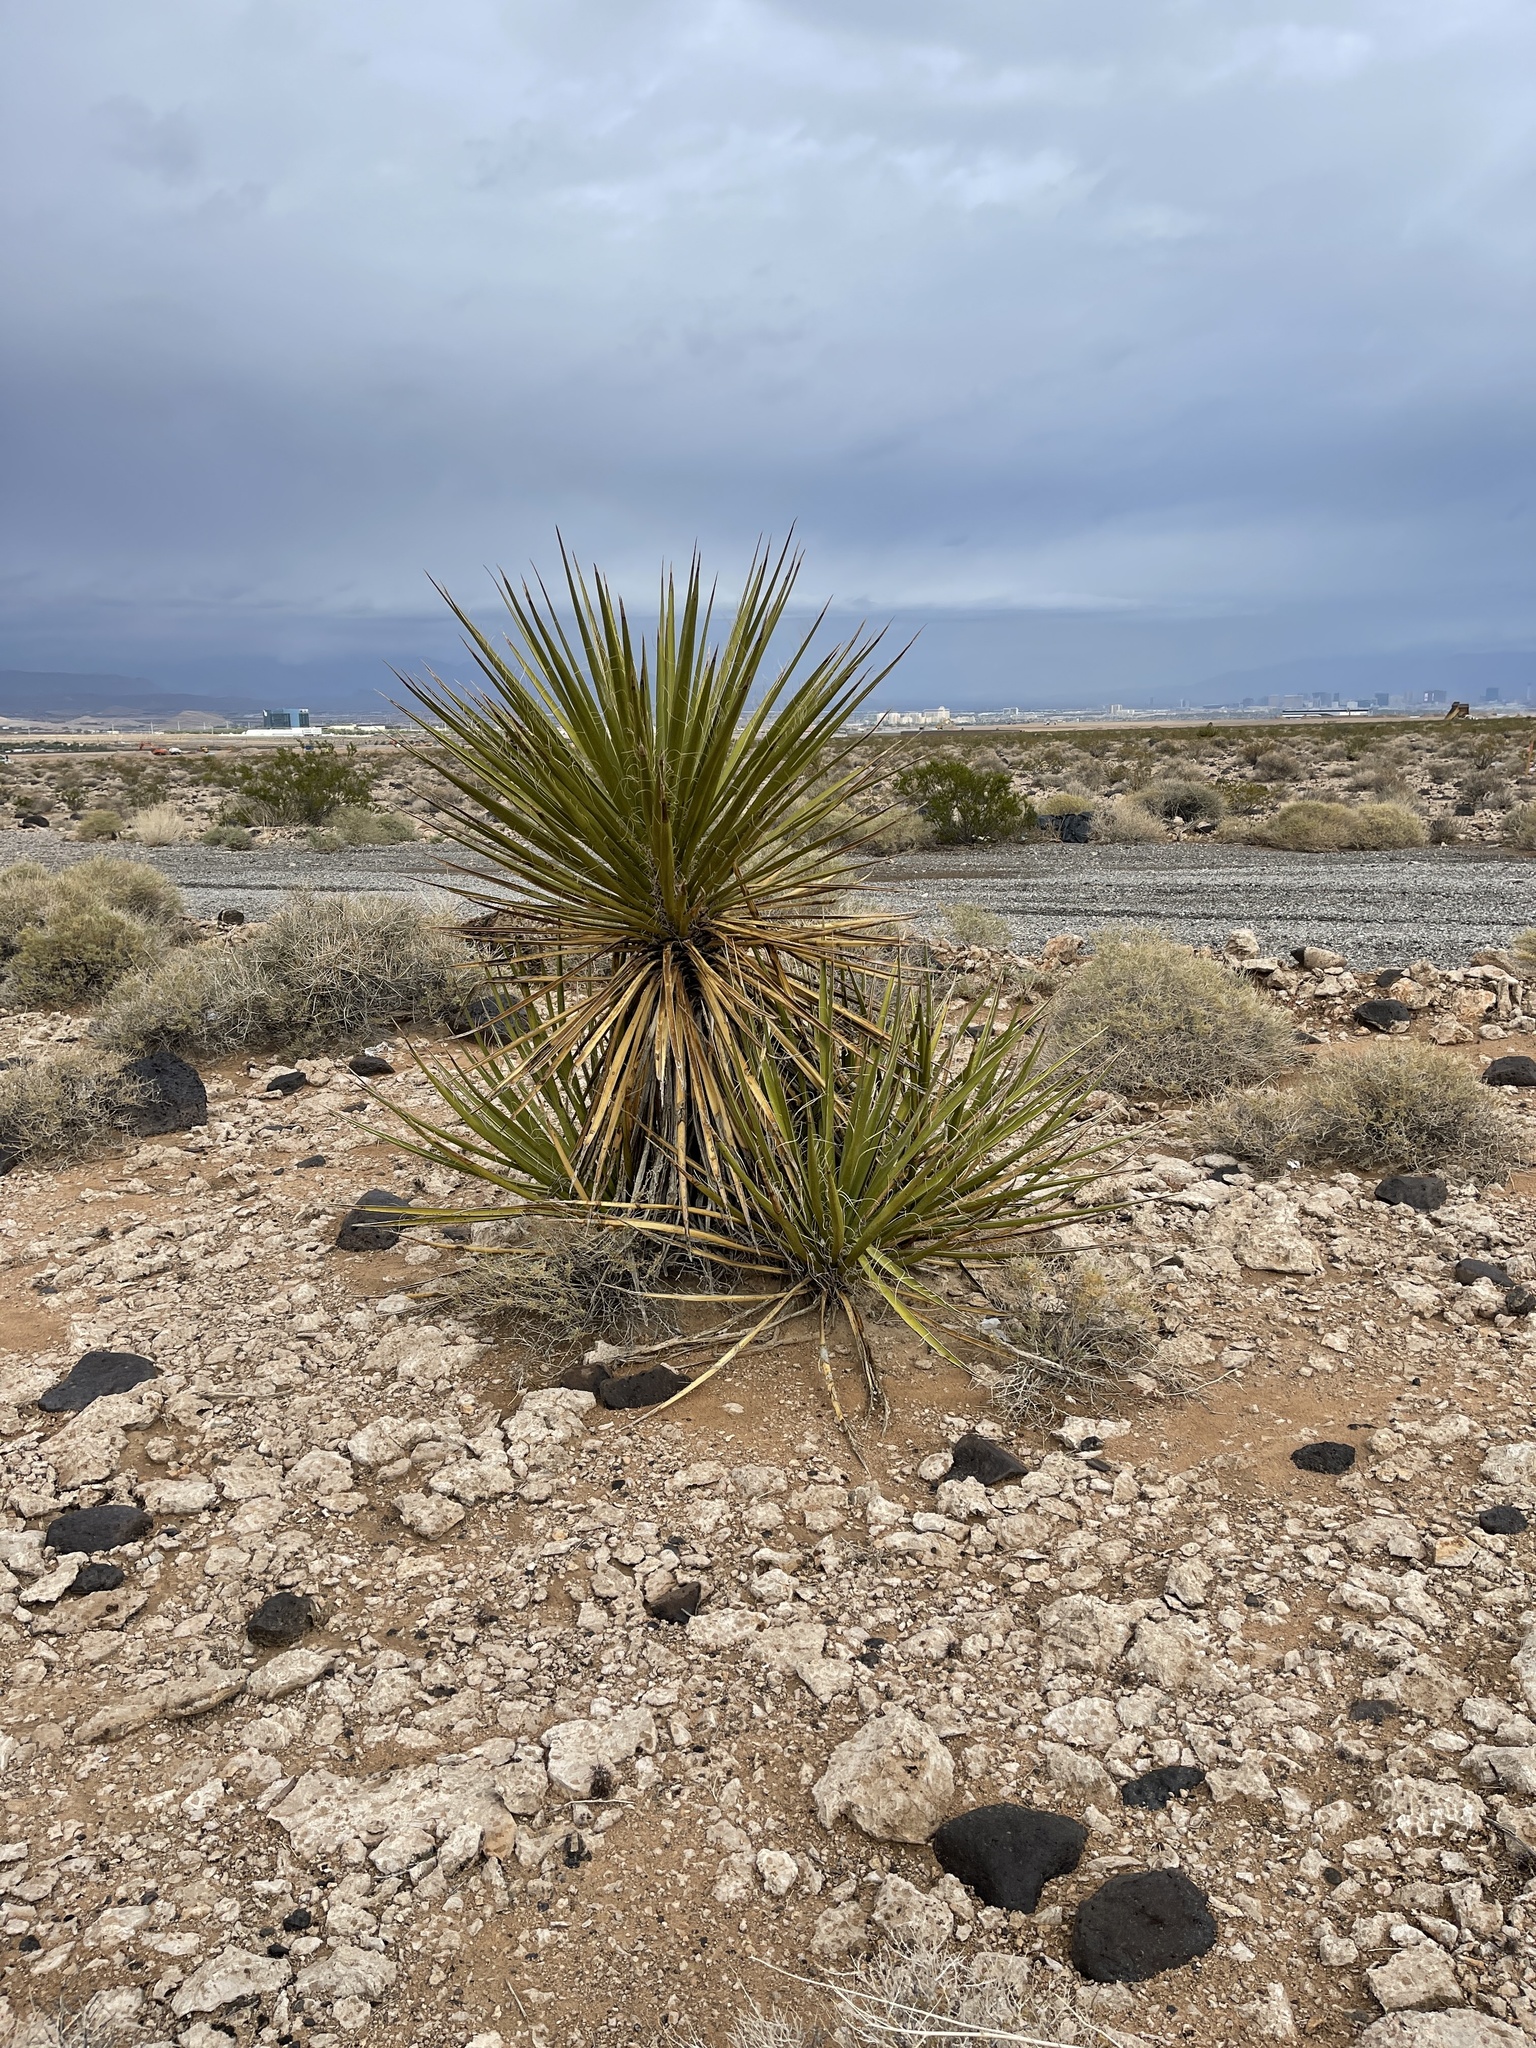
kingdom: Plantae
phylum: Tracheophyta
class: Liliopsida
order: Asparagales
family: Asparagaceae
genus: Yucca
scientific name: Yucca schidigera
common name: Mojave yucca
